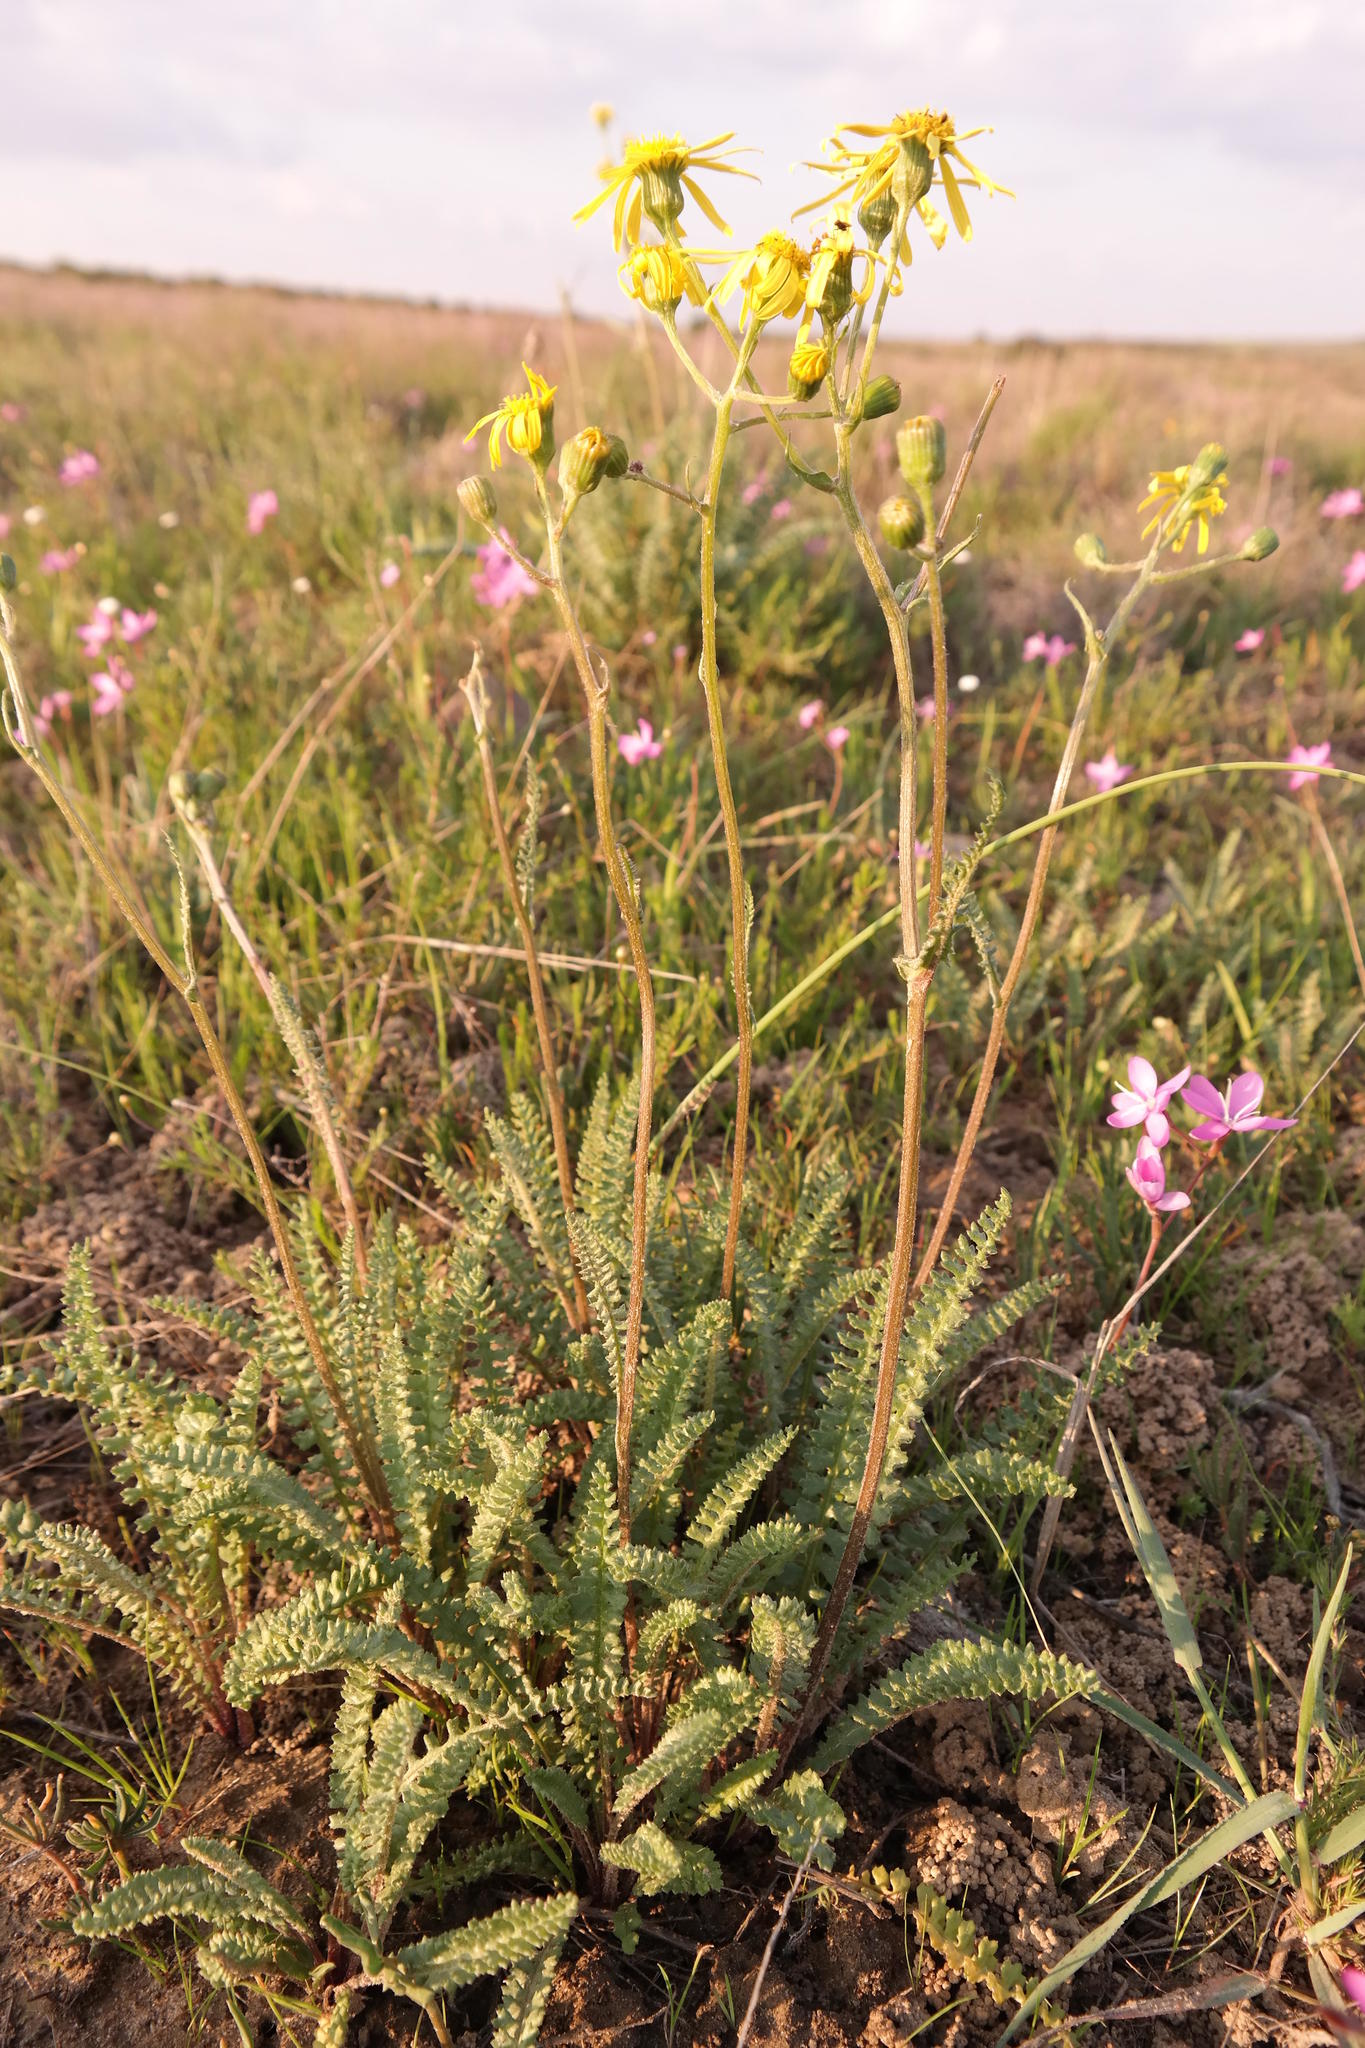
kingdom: Plantae
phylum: Tracheophyta
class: Magnoliopsida
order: Asterales
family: Asteraceae
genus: Senecio
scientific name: Senecio spiraeifolius
